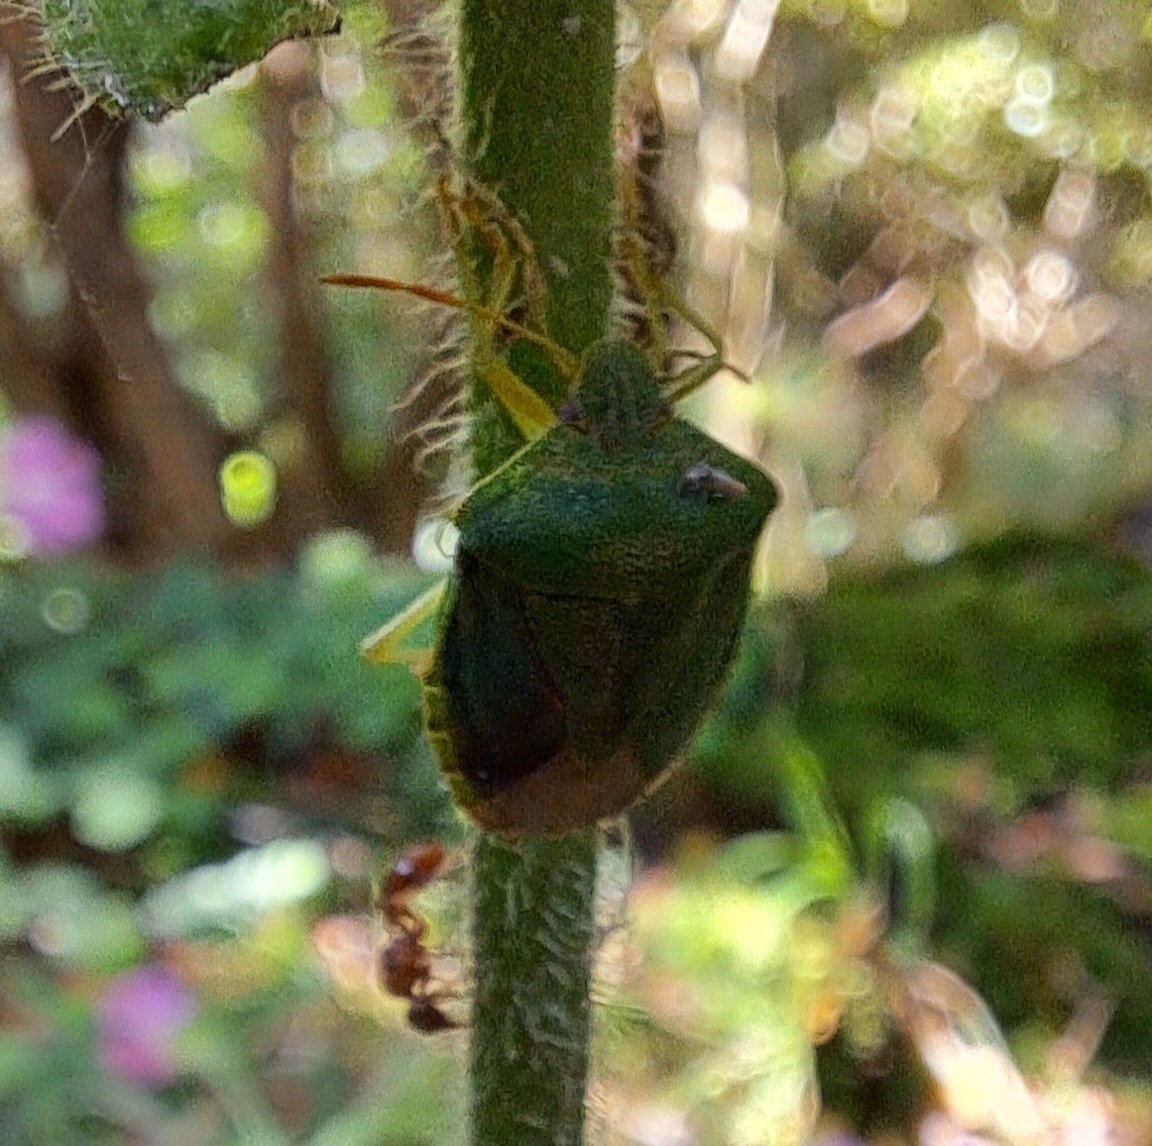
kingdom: Animalia
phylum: Arthropoda
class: Insecta
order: Hemiptera
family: Pentatomidae
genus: Palomena
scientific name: Palomena prasina
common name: Green shieldbug
